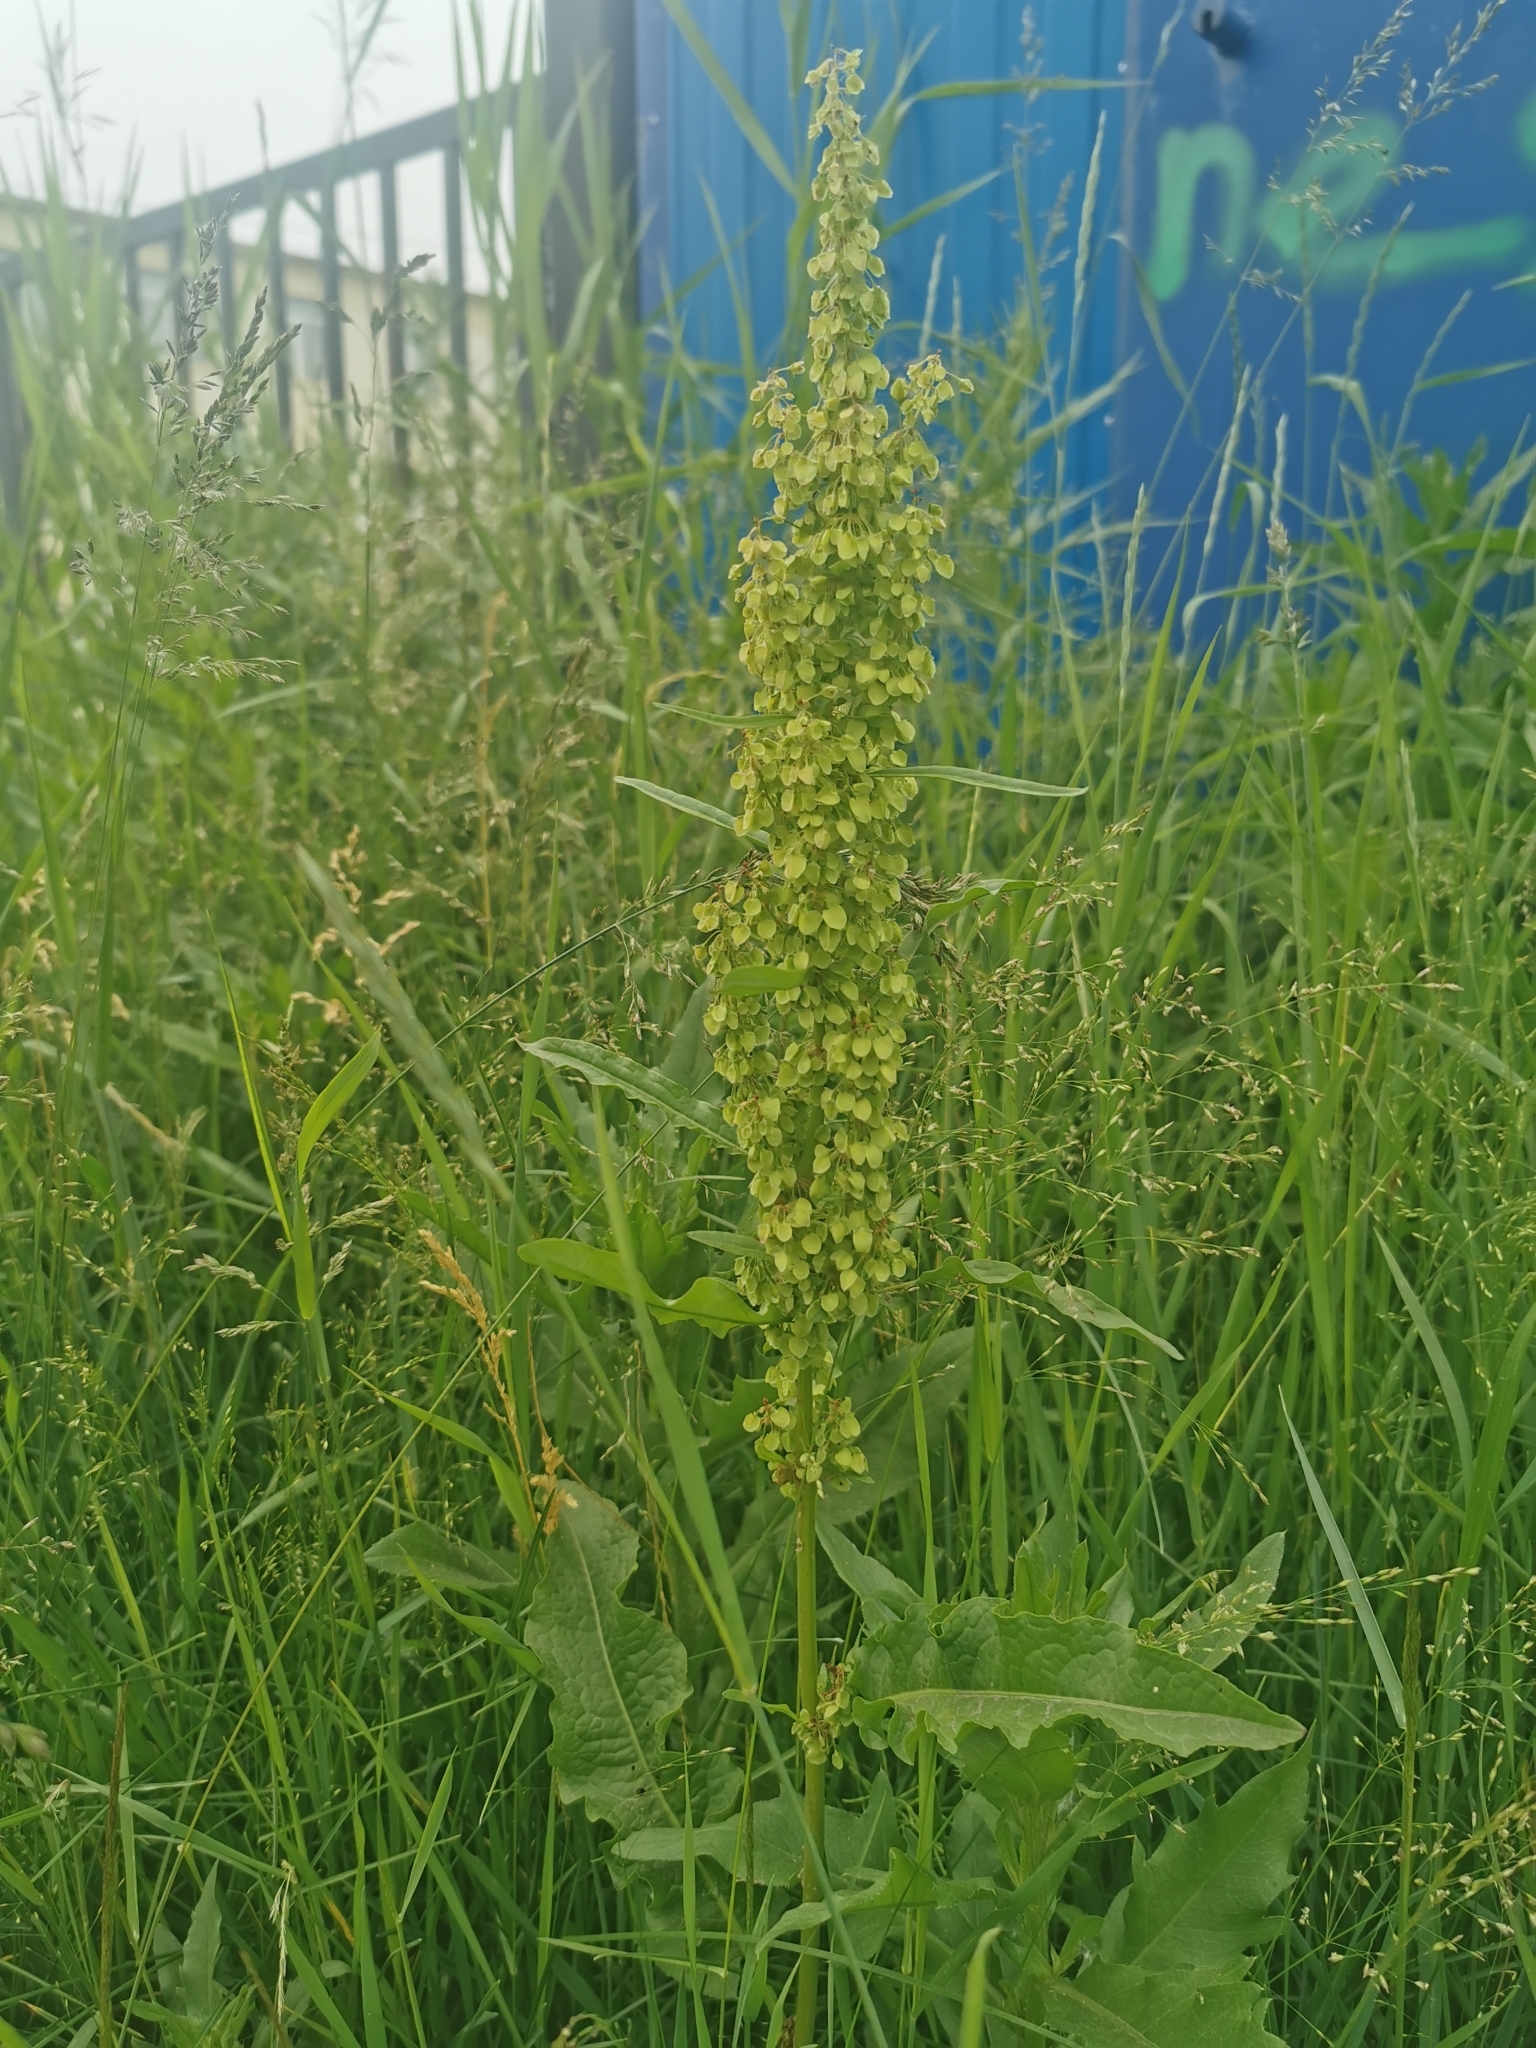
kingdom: Plantae
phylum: Tracheophyta
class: Magnoliopsida
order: Caryophyllales
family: Polygonaceae
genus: Rumex
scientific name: Rumex longifolius
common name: Dooryard dock
